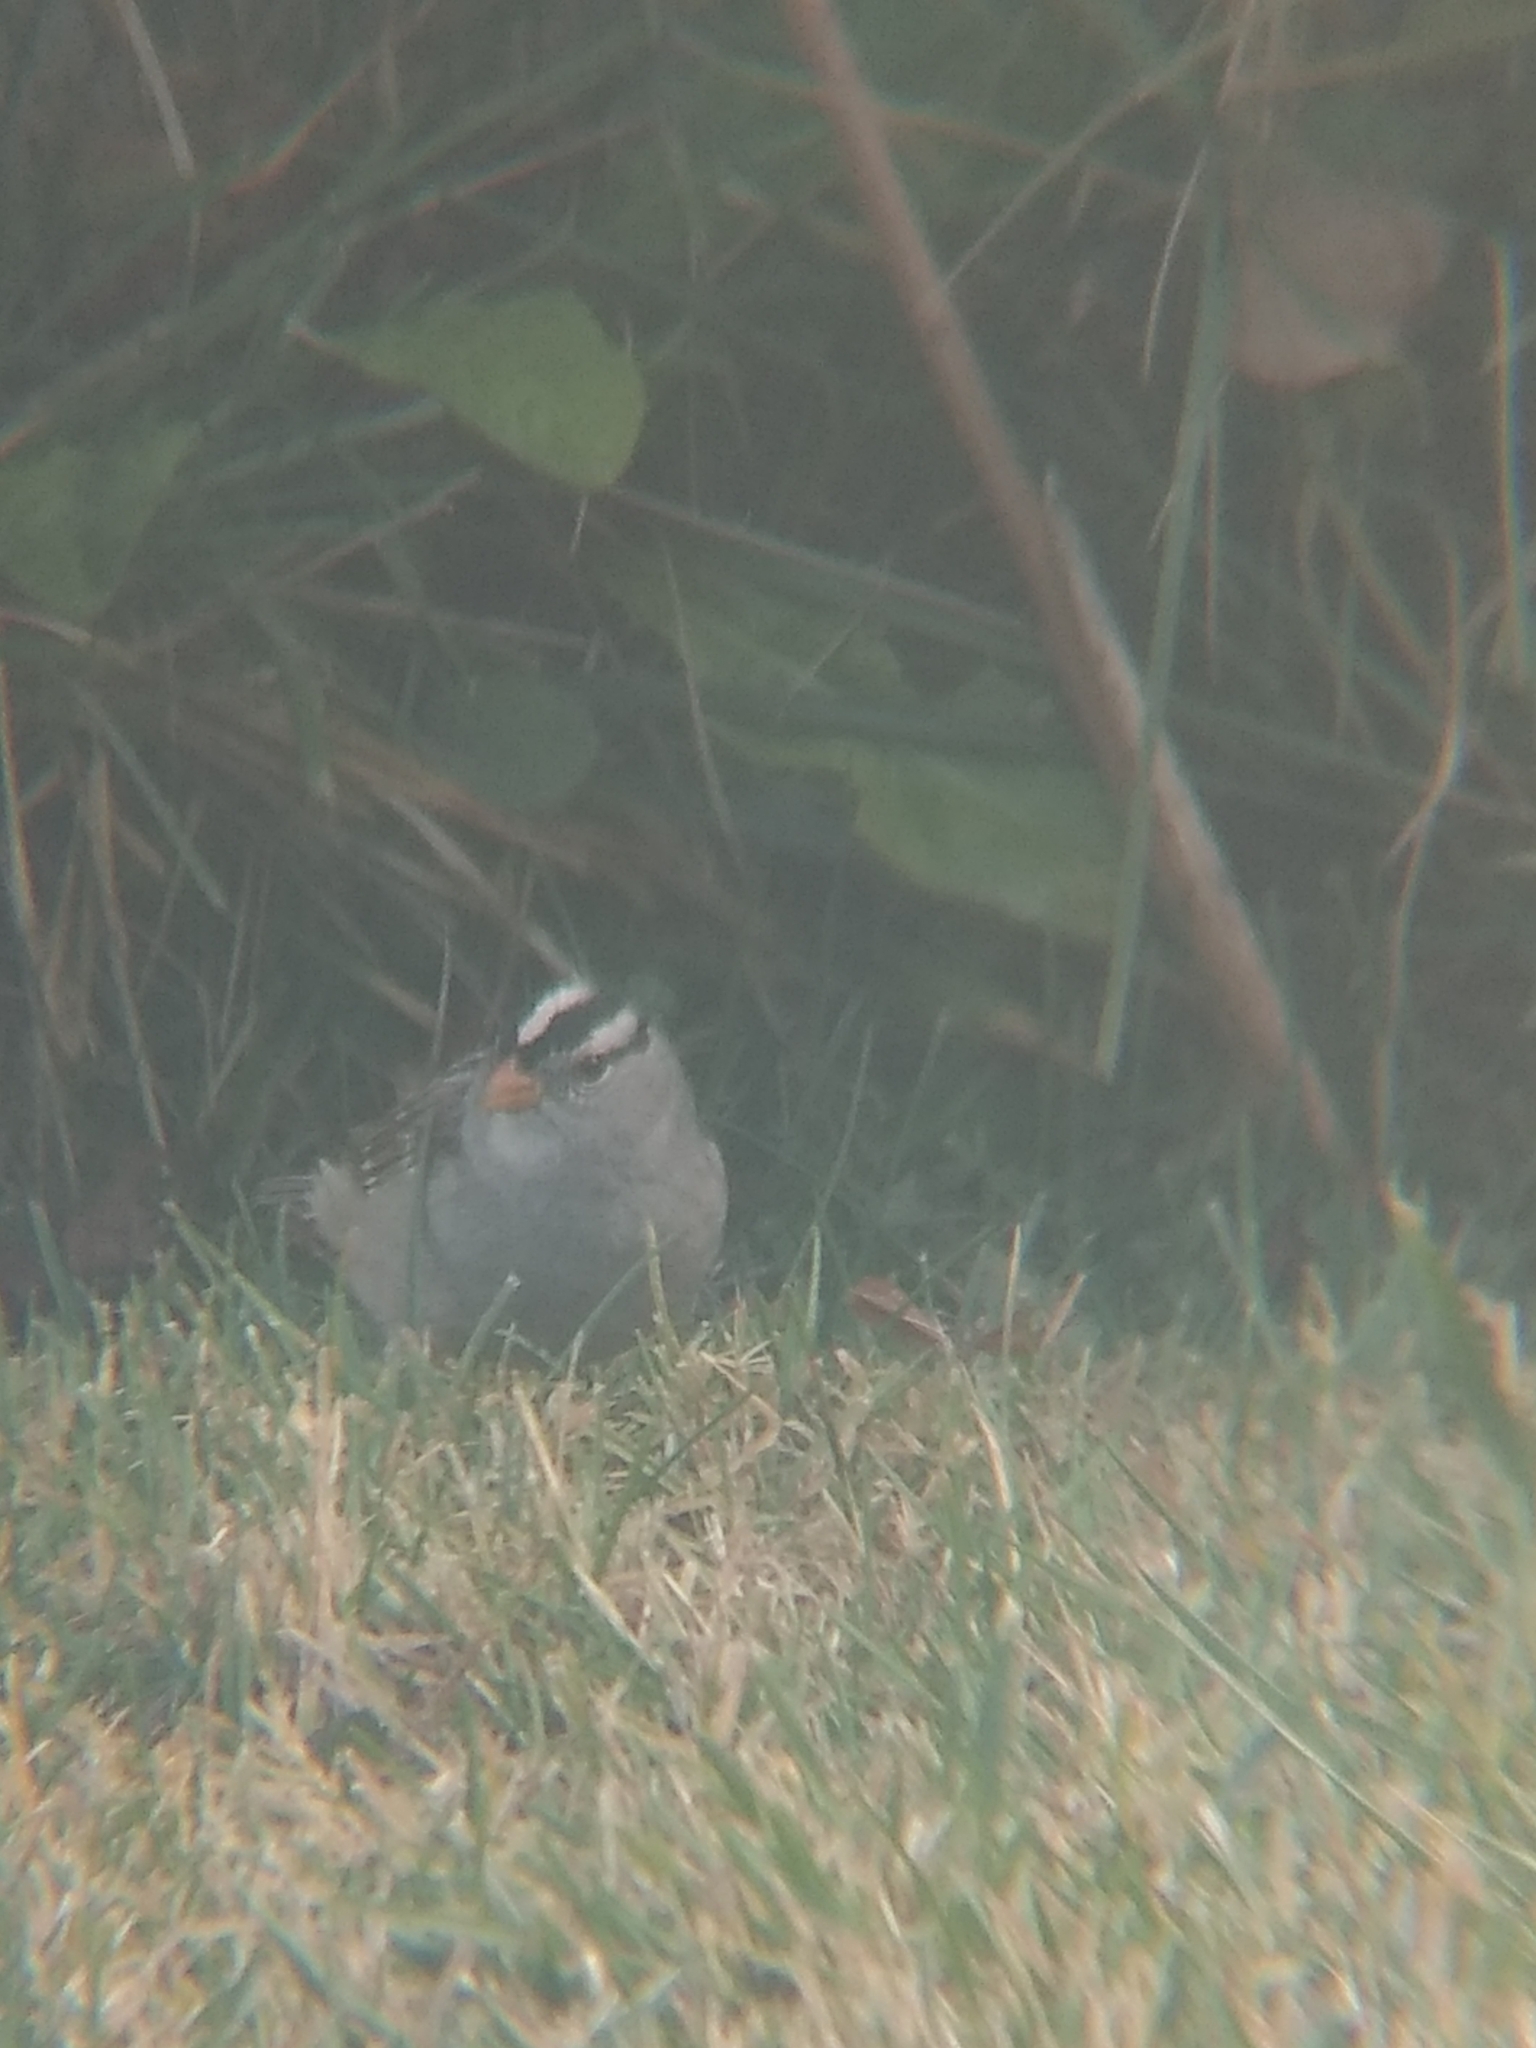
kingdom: Animalia
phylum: Chordata
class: Aves
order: Passeriformes
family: Passerellidae
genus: Zonotrichia
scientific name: Zonotrichia leucophrys
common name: White-crowned sparrow
